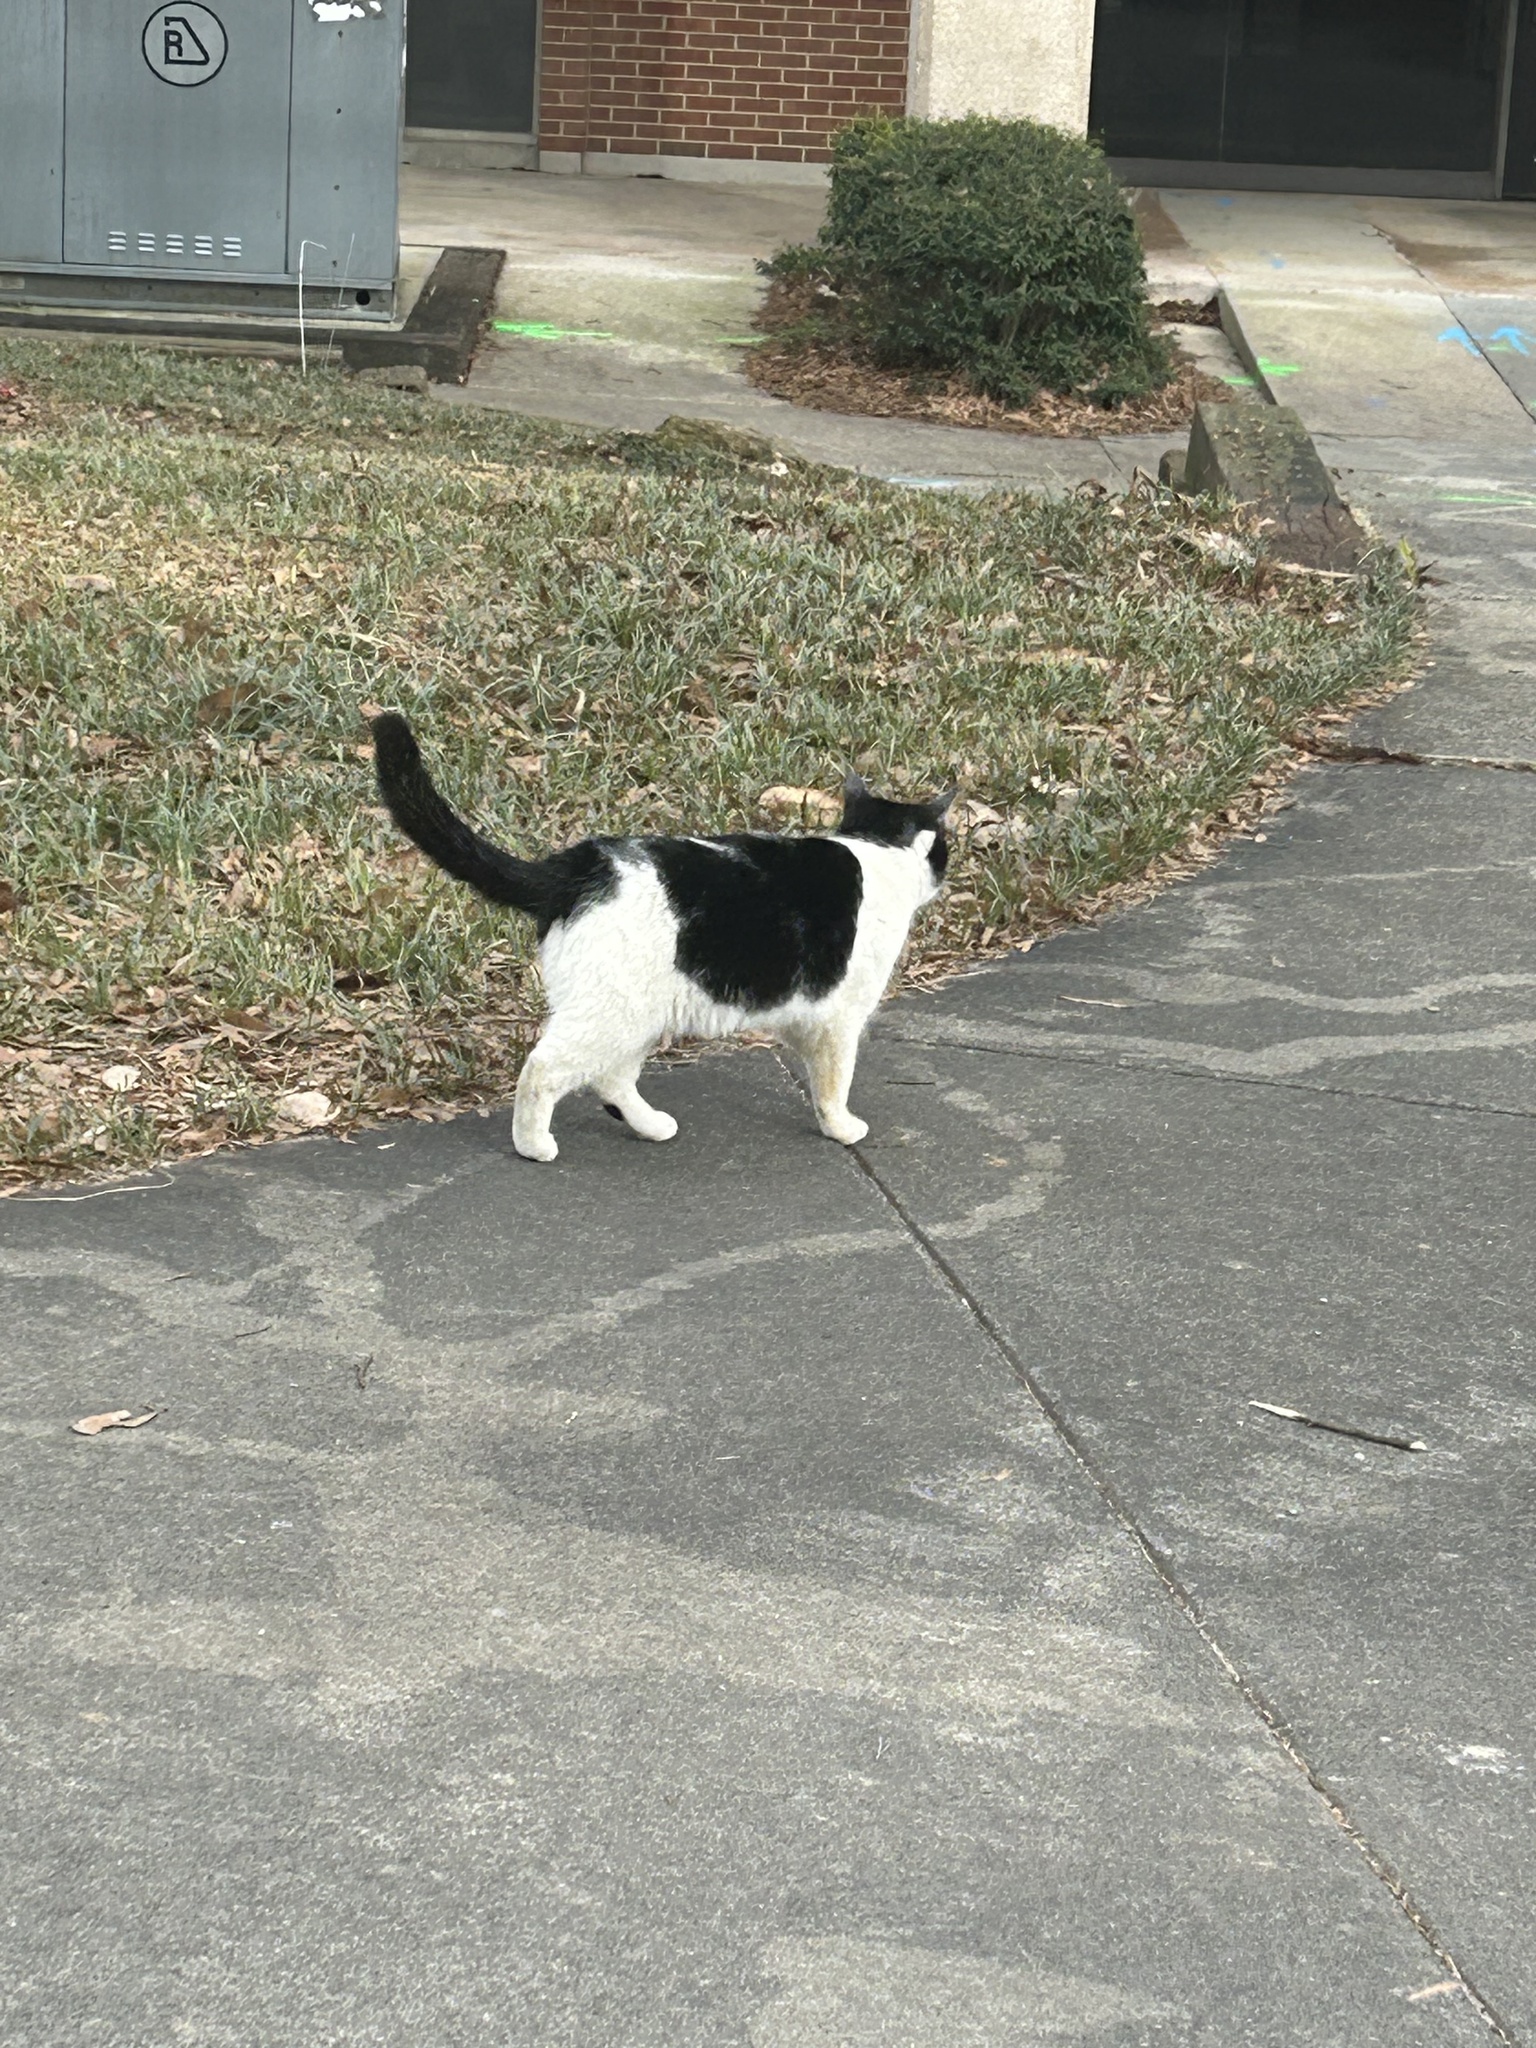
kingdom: Animalia
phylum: Chordata
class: Mammalia
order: Carnivora
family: Felidae
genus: Felis
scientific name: Felis catus
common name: Domestic cat
